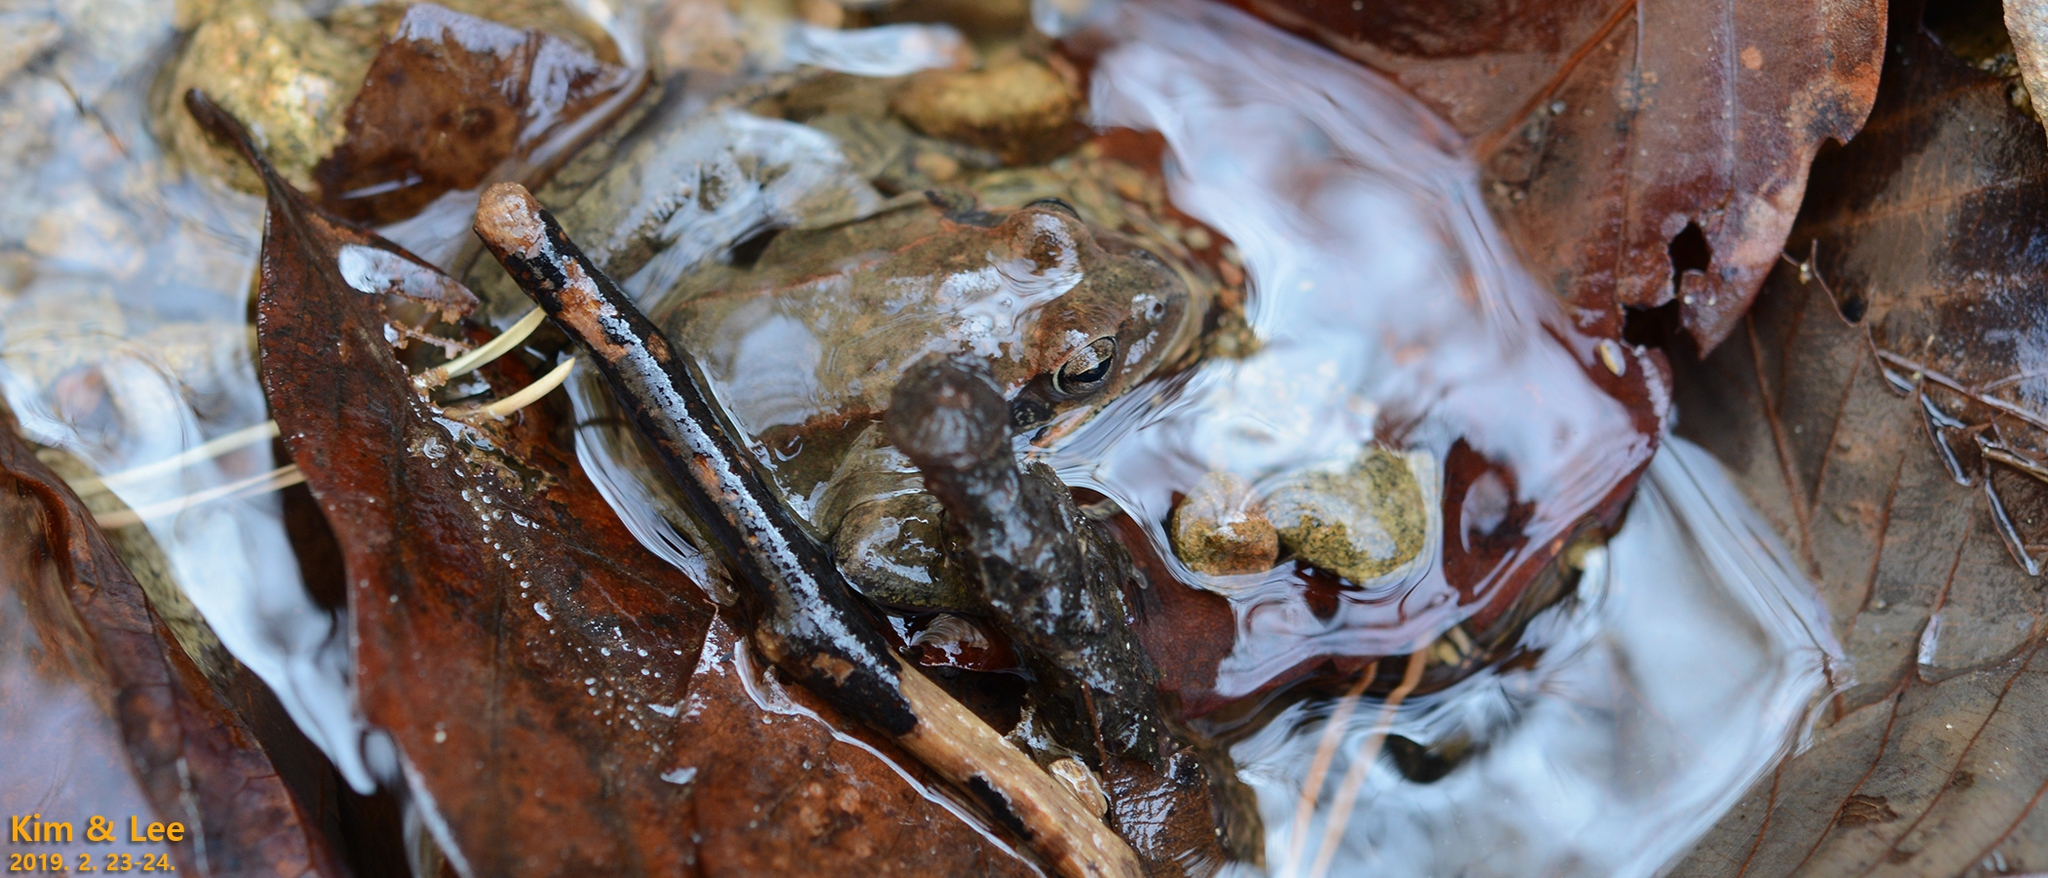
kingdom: Animalia
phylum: Chordata
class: Amphibia
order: Anura
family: Ranidae
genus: Rana
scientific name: Rana uenoi
